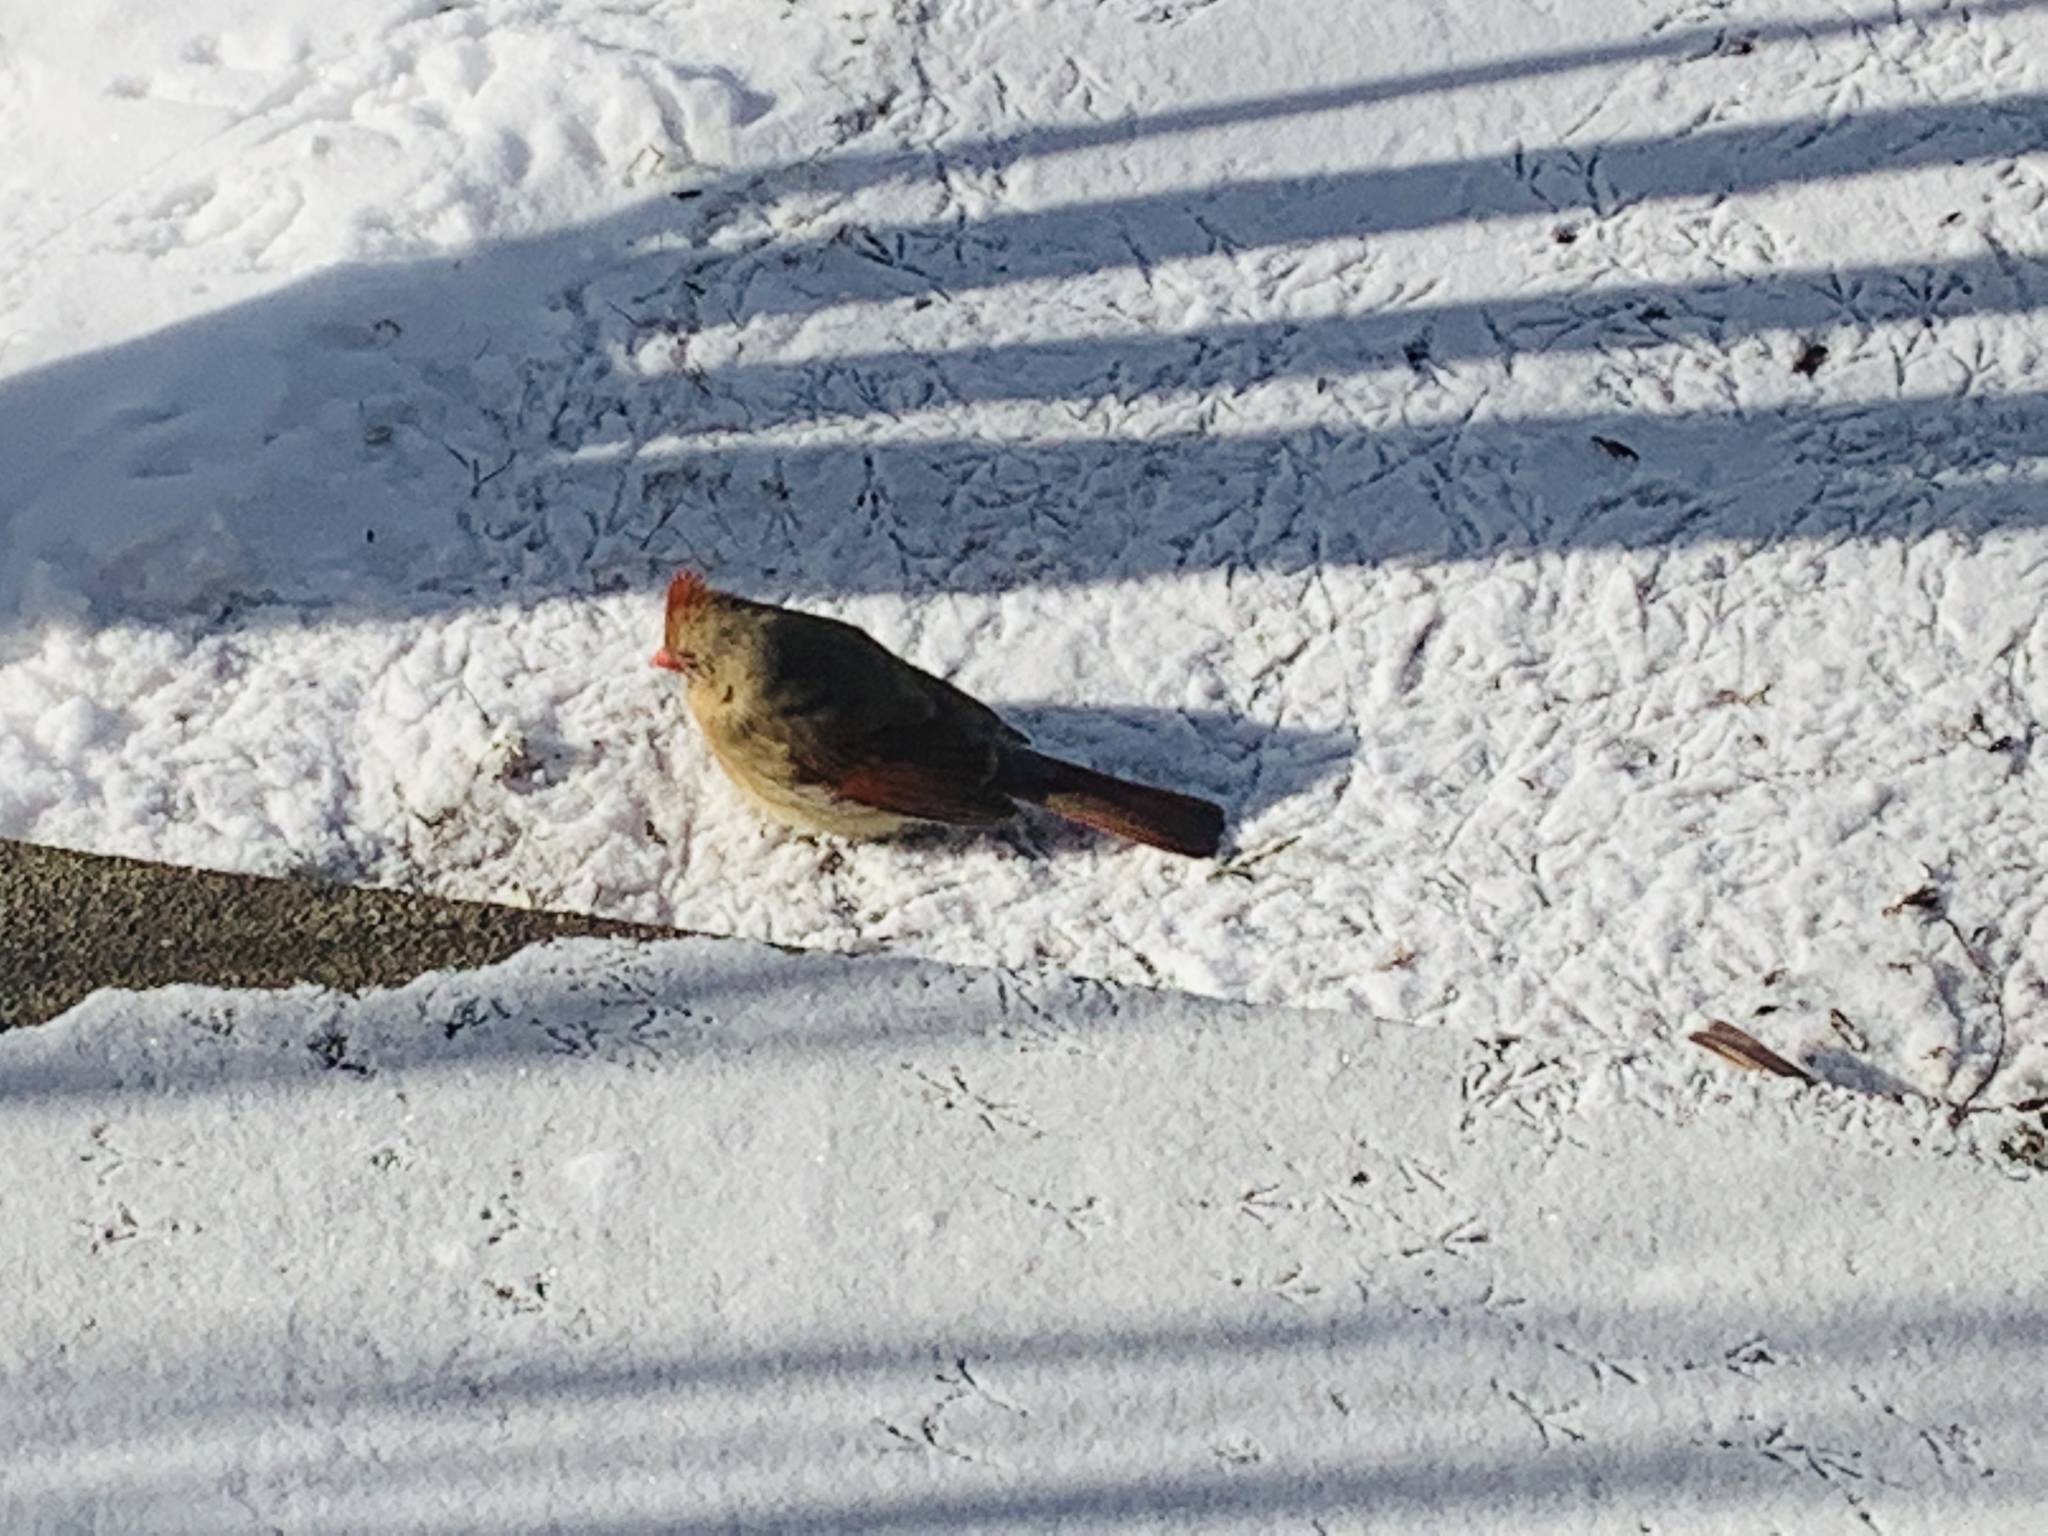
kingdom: Animalia
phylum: Chordata
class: Aves
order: Passeriformes
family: Cardinalidae
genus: Cardinalis
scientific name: Cardinalis cardinalis
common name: Northern cardinal
